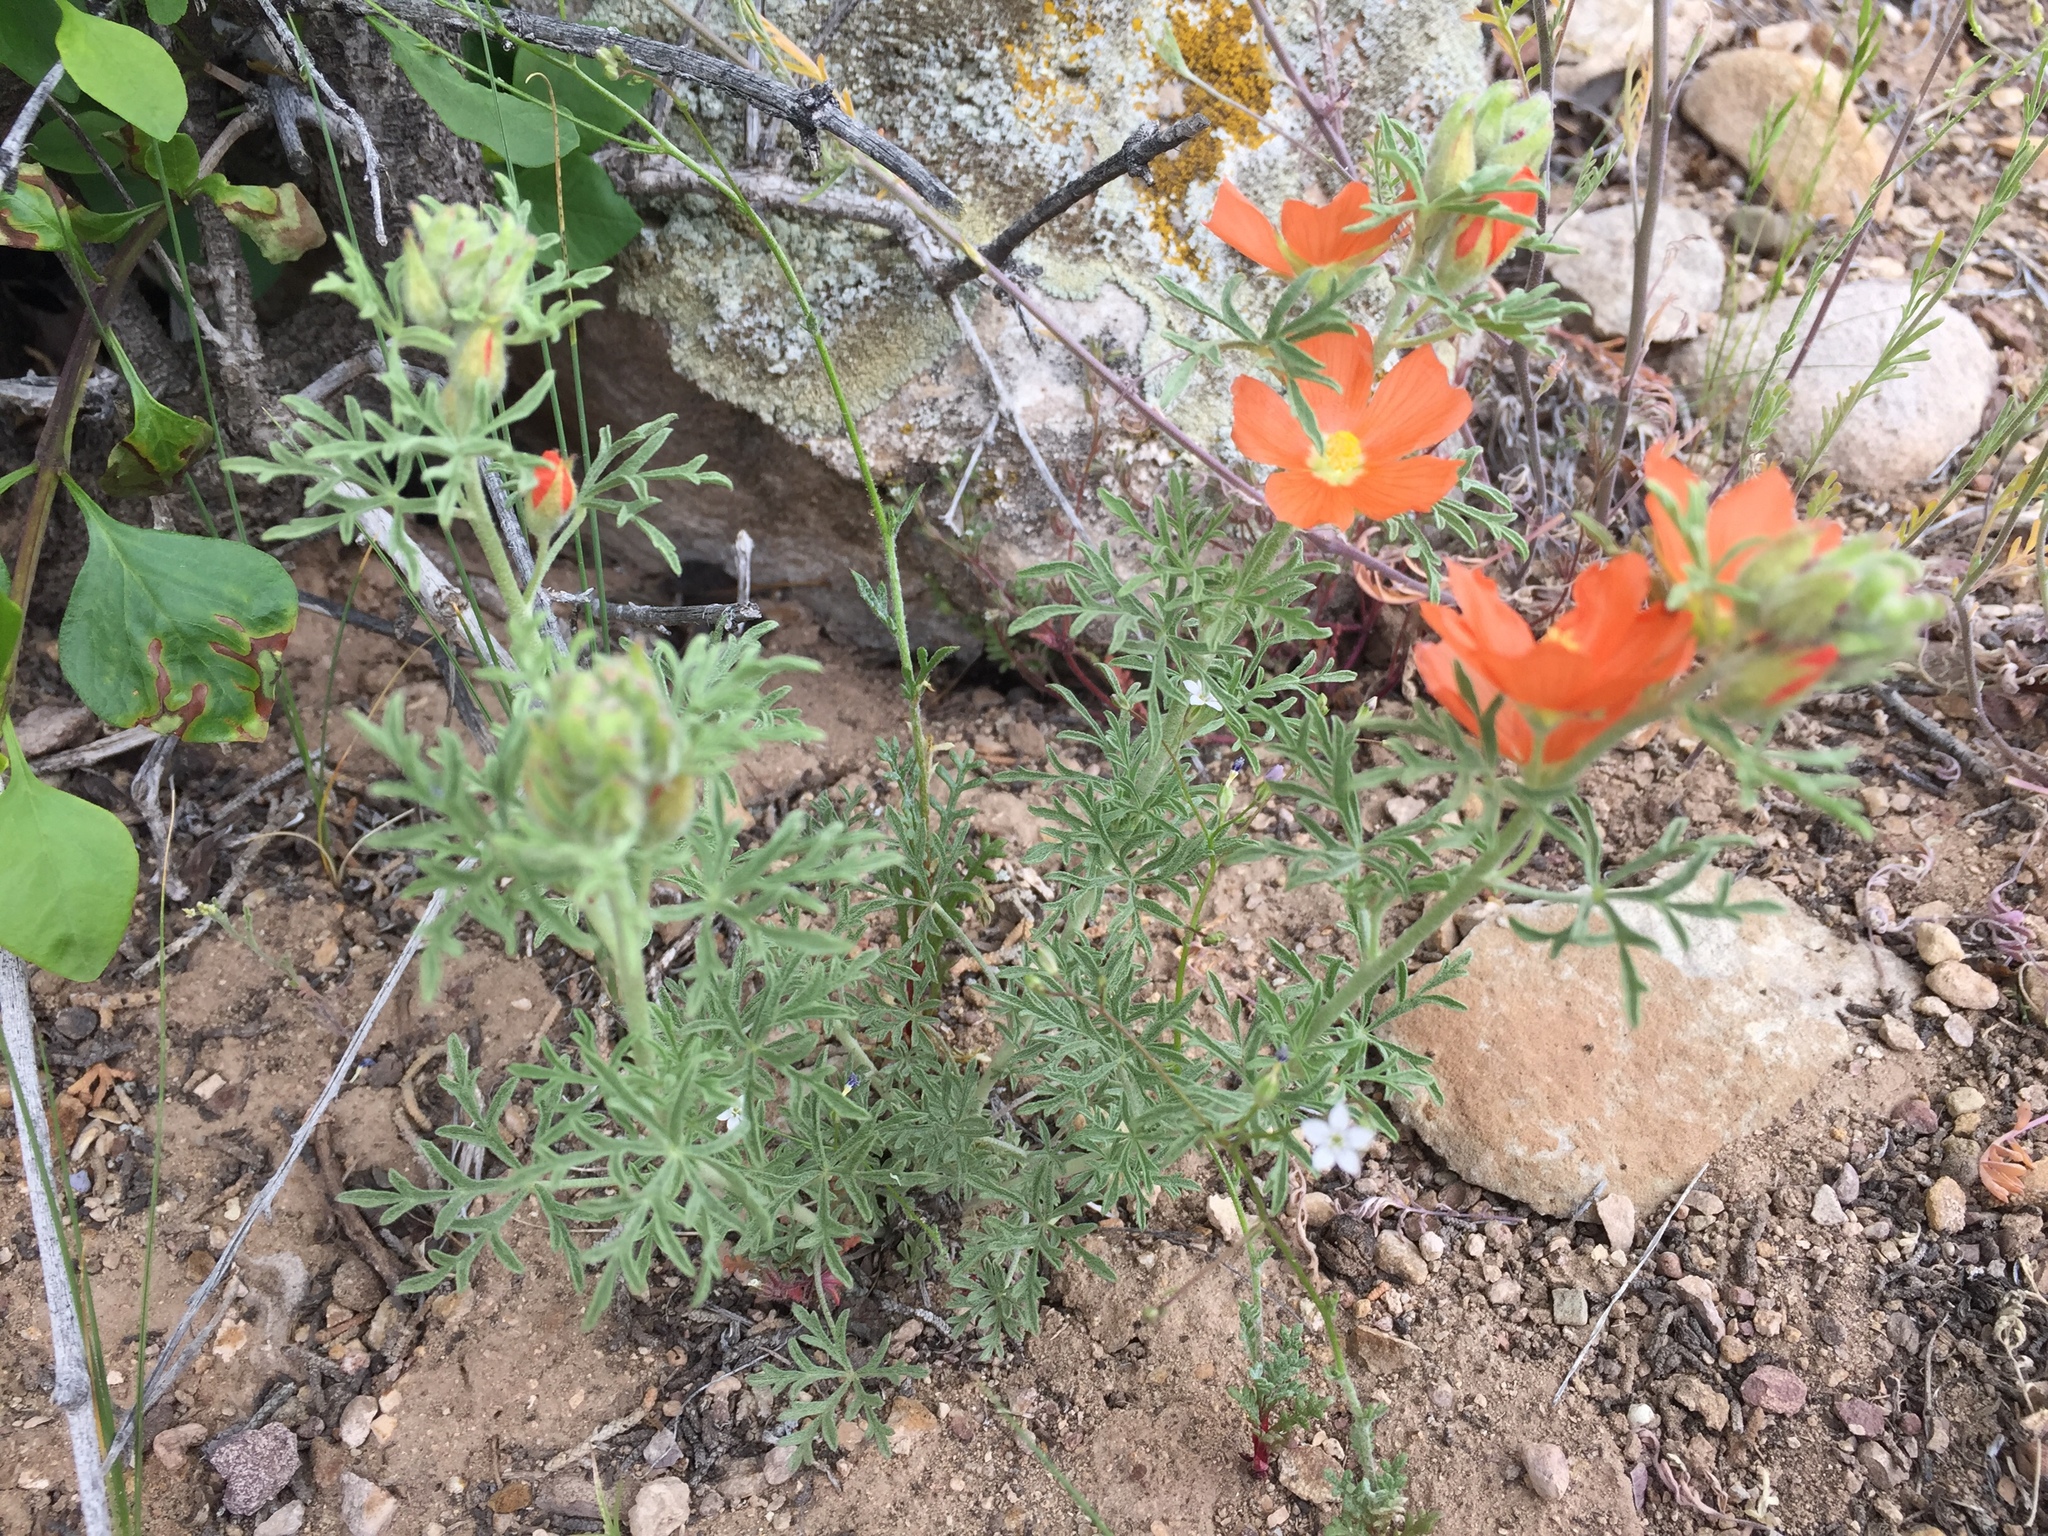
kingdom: Plantae
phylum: Tracheophyta
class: Magnoliopsida
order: Malvales
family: Malvaceae
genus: Sphaeralcea
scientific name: Sphaeralcea coccinea
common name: Moss-rose
